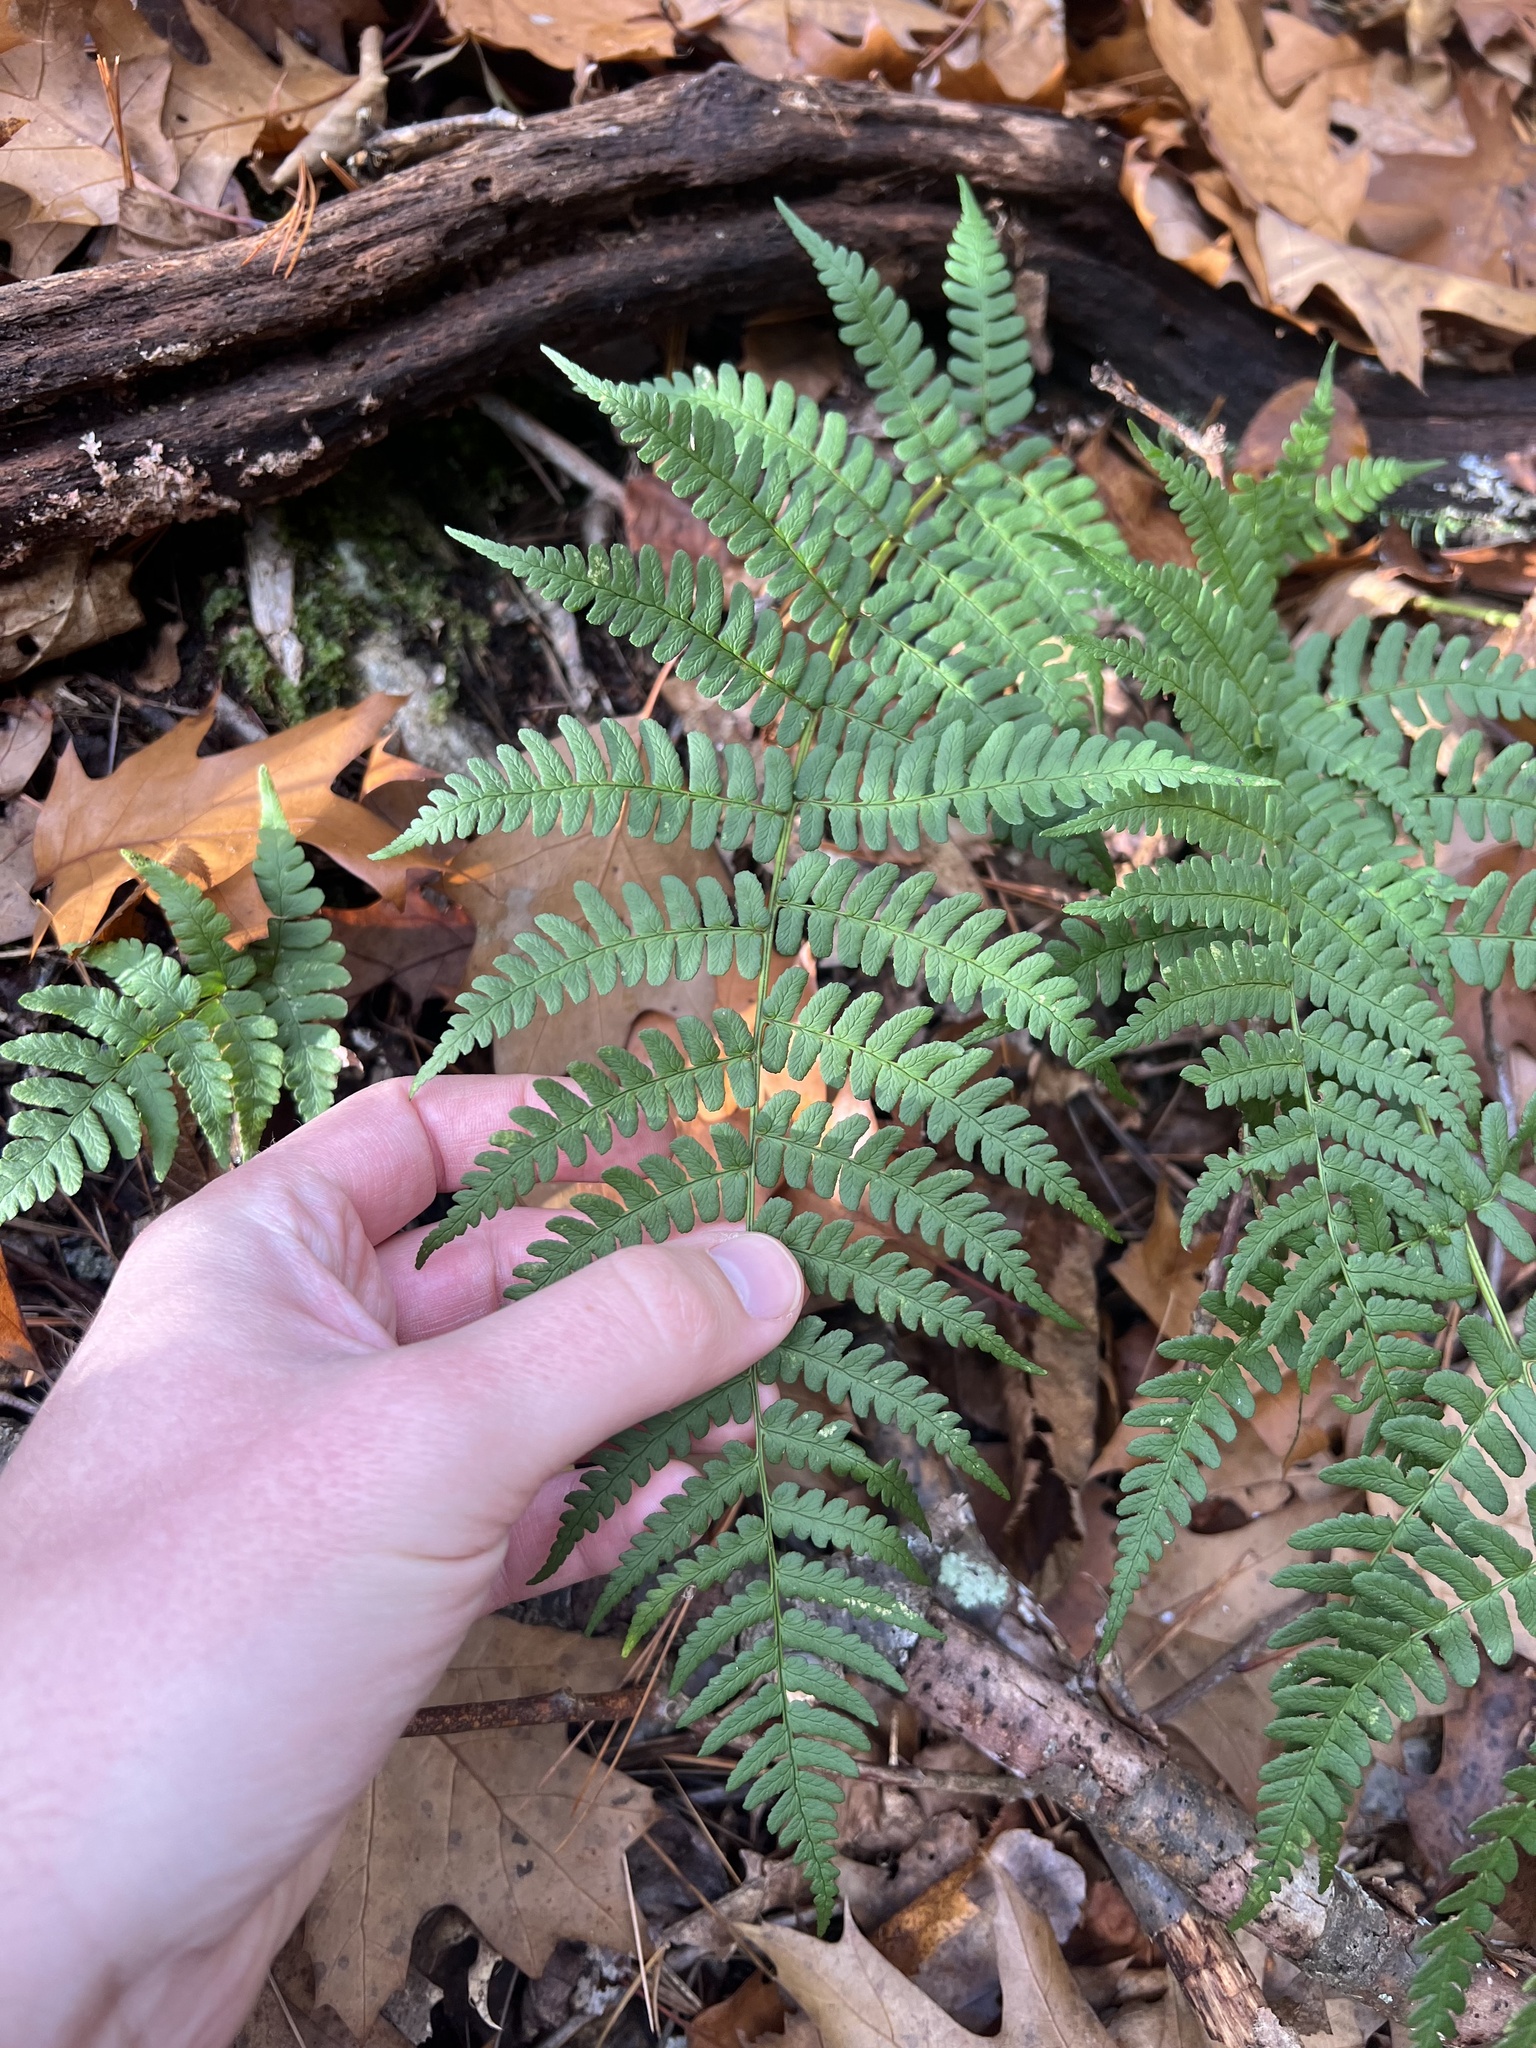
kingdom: Plantae
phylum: Tracheophyta
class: Polypodiopsida
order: Polypodiales
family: Dryopteridaceae
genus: Dryopteris
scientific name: Dryopteris marginalis
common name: Marginal wood fern
